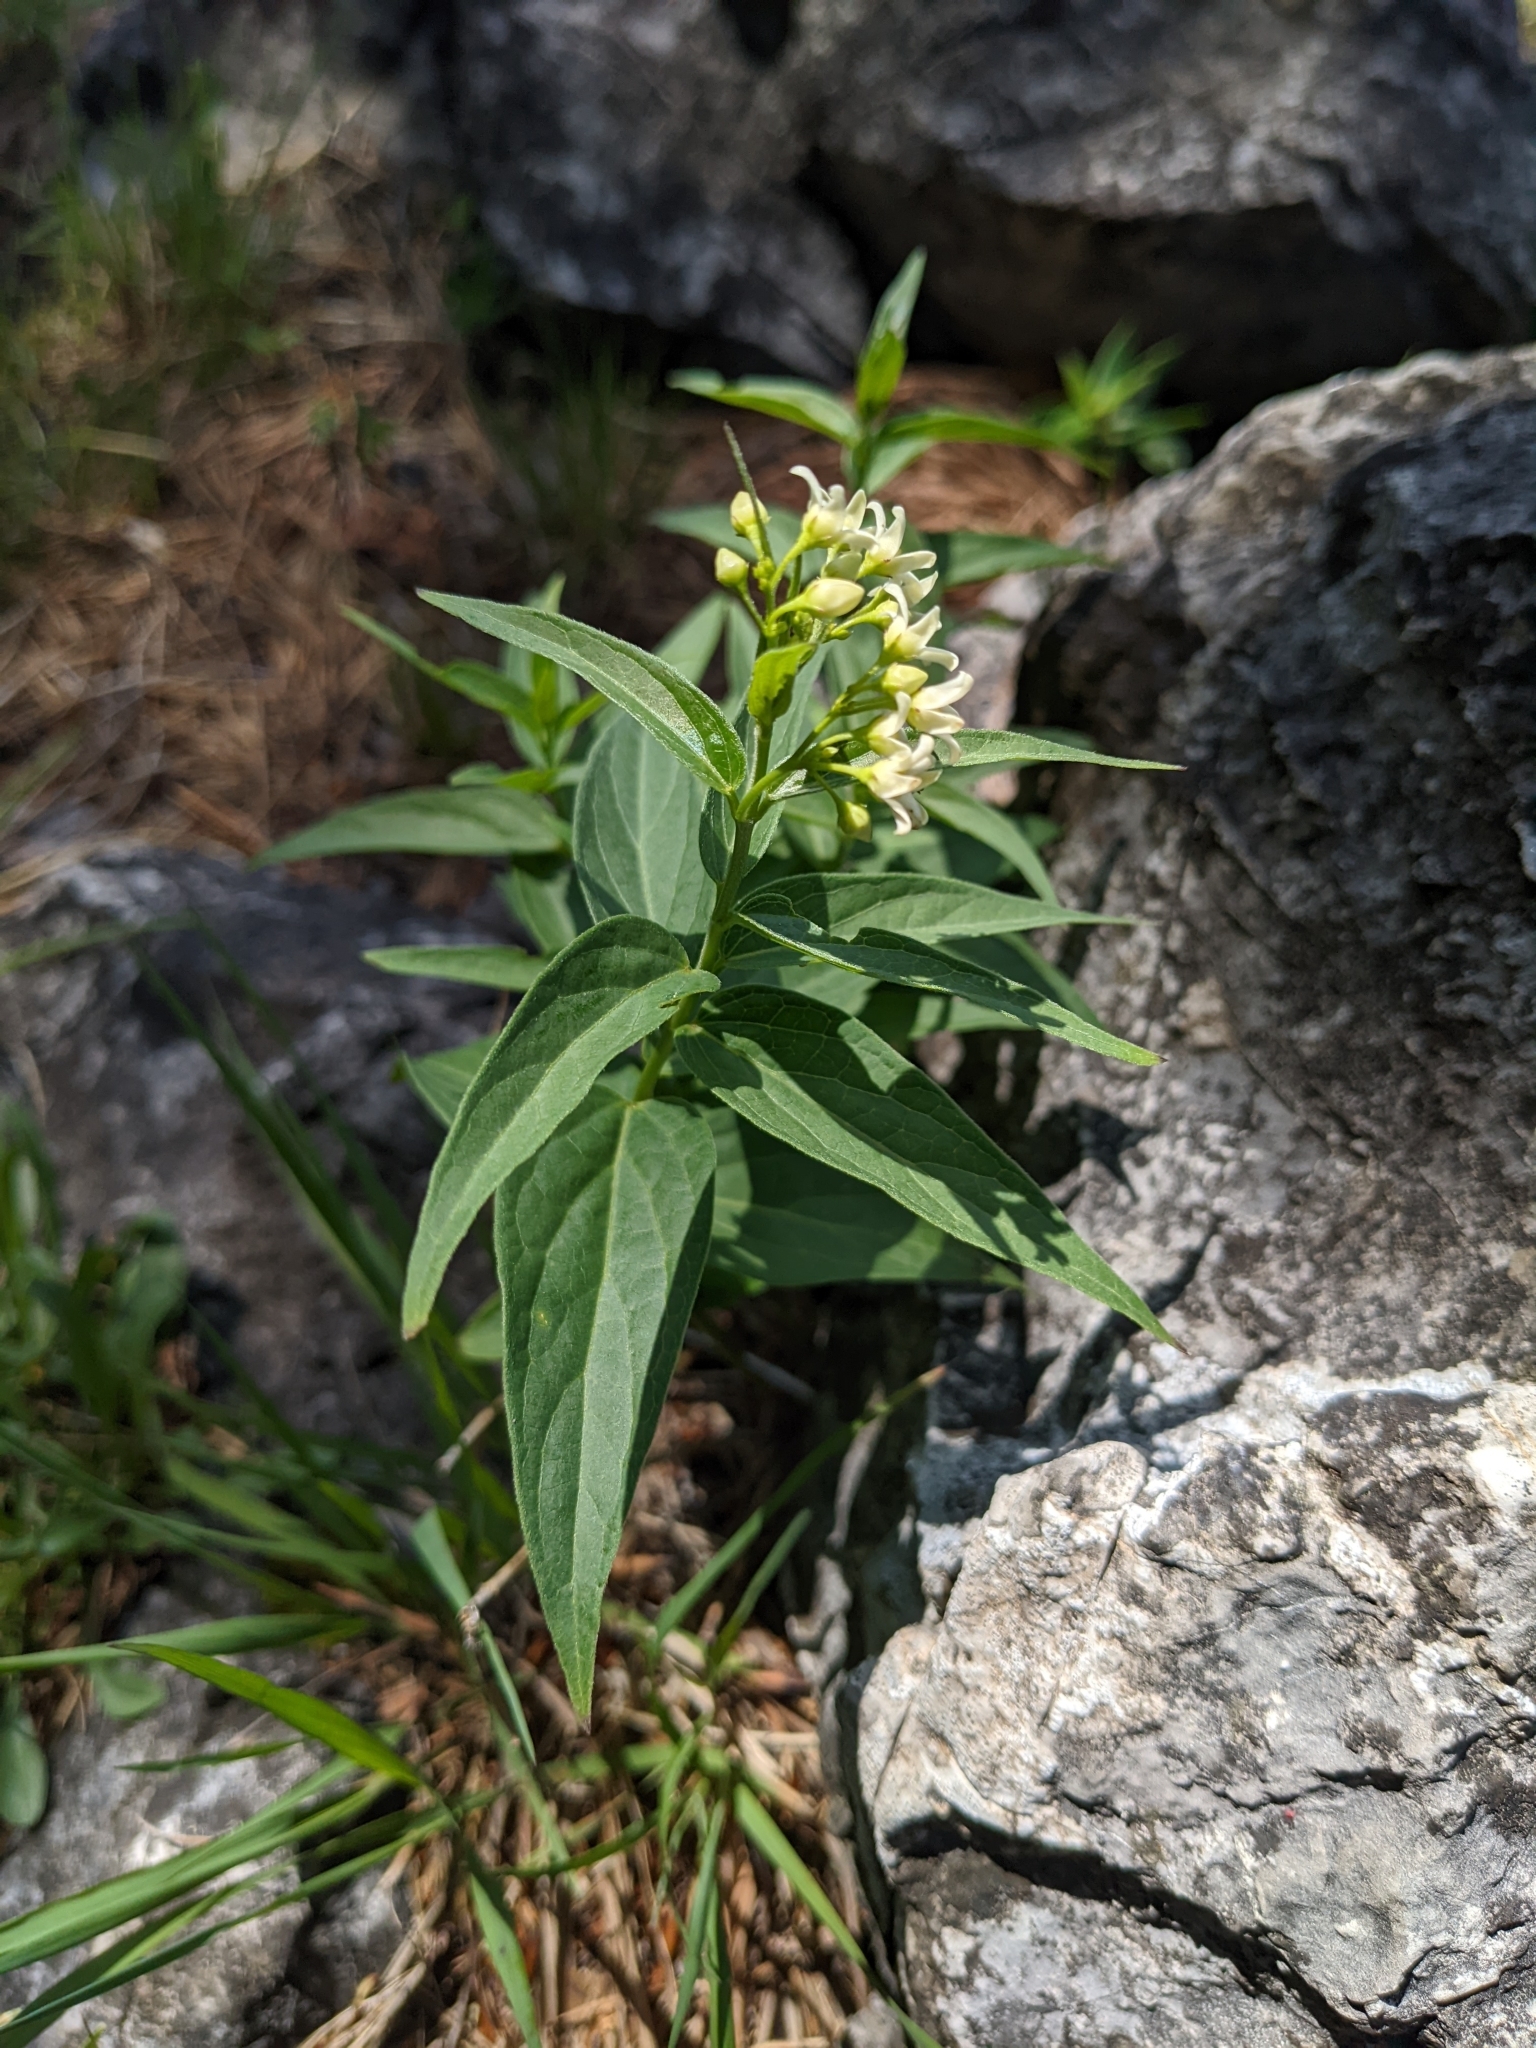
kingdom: Plantae
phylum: Tracheophyta
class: Magnoliopsida
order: Gentianales
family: Apocynaceae
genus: Vincetoxicum
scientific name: Vincetoxicum hirundinaria
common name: White swallowwort
